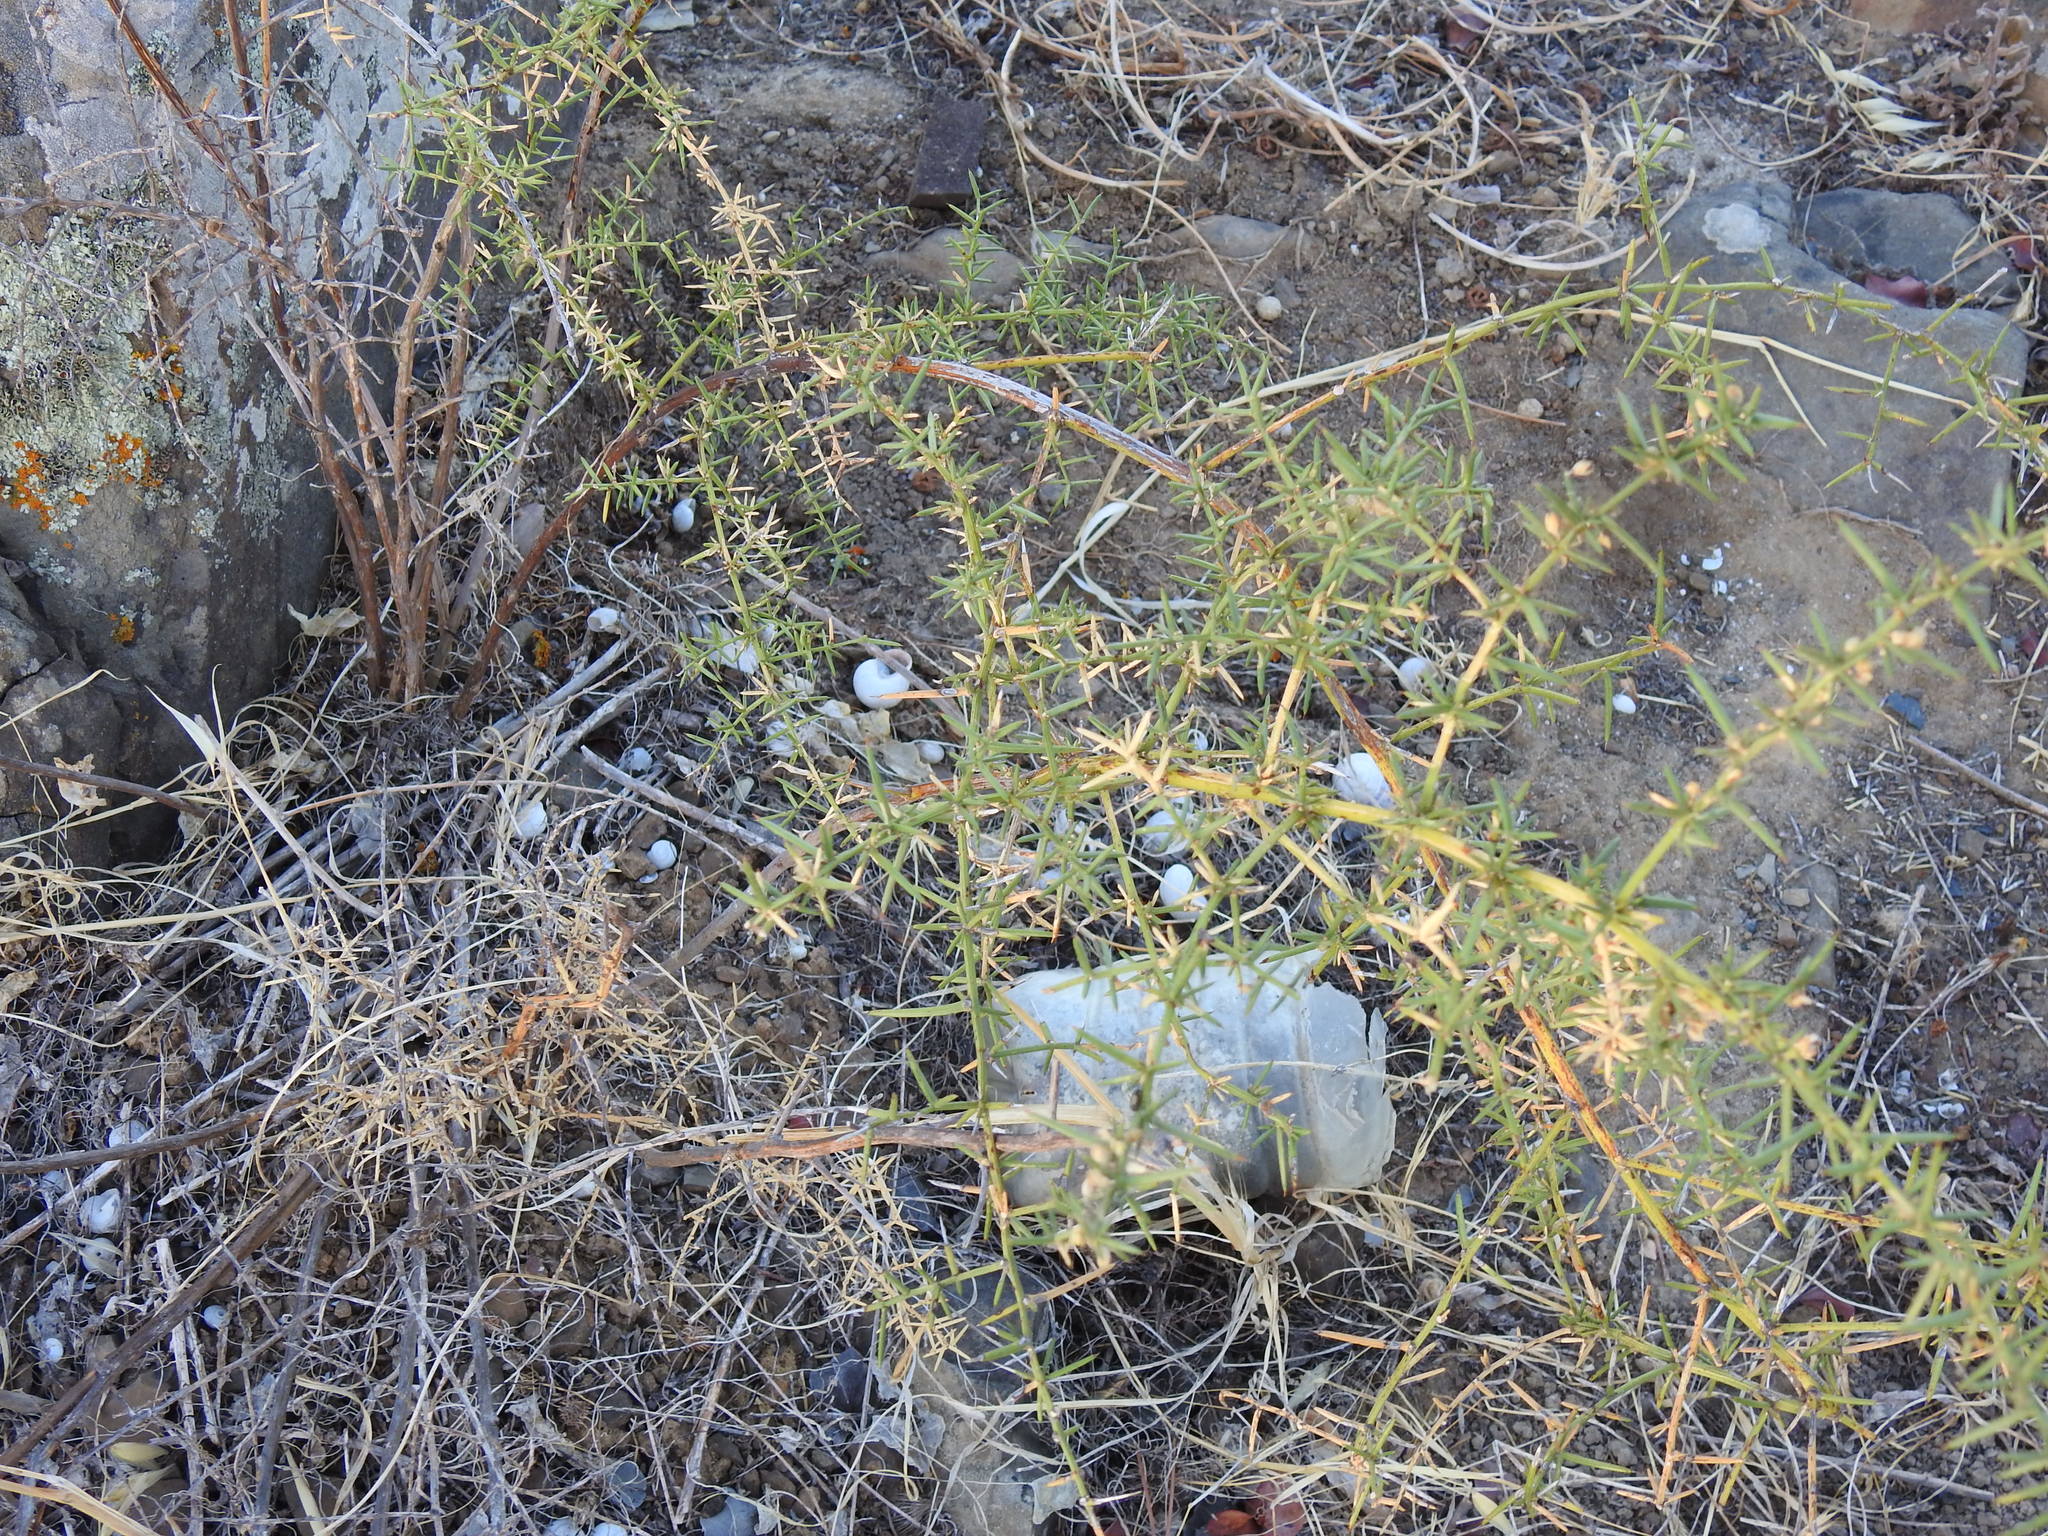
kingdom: Plantae
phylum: Tracheophyta
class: Liliopsida
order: Asparagales
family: Asparagaceae
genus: Asparagus
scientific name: Asparagus aphyllus
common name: Mediterranean asparagus
